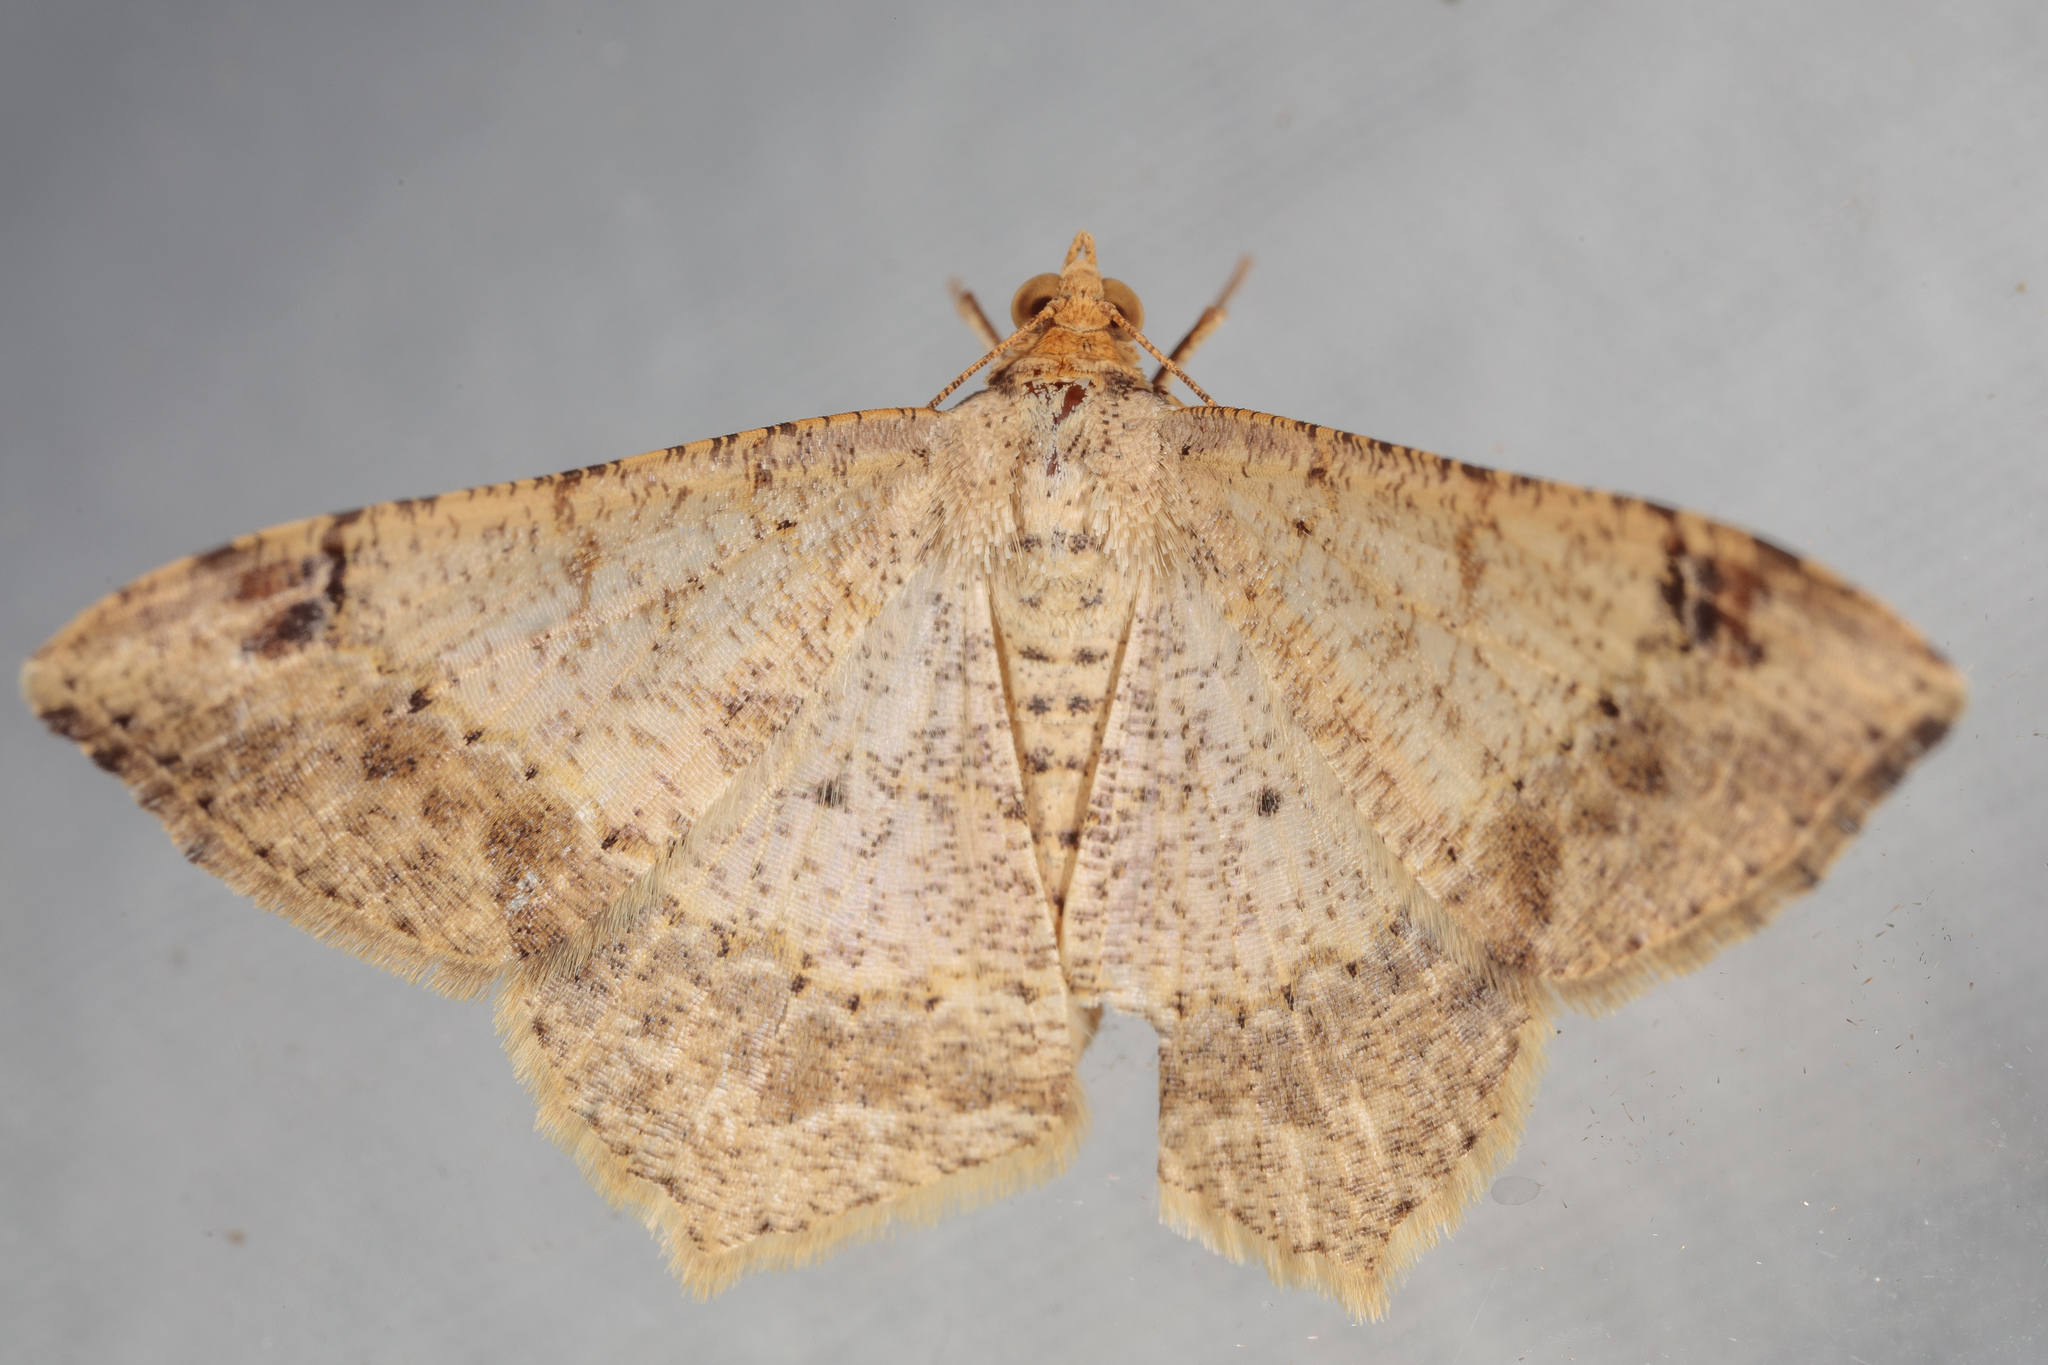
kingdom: Animalia
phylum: Arthropoda
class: Insecta
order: Lepidoptera
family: Geometridae
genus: Macaria
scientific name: Macaria abydata
